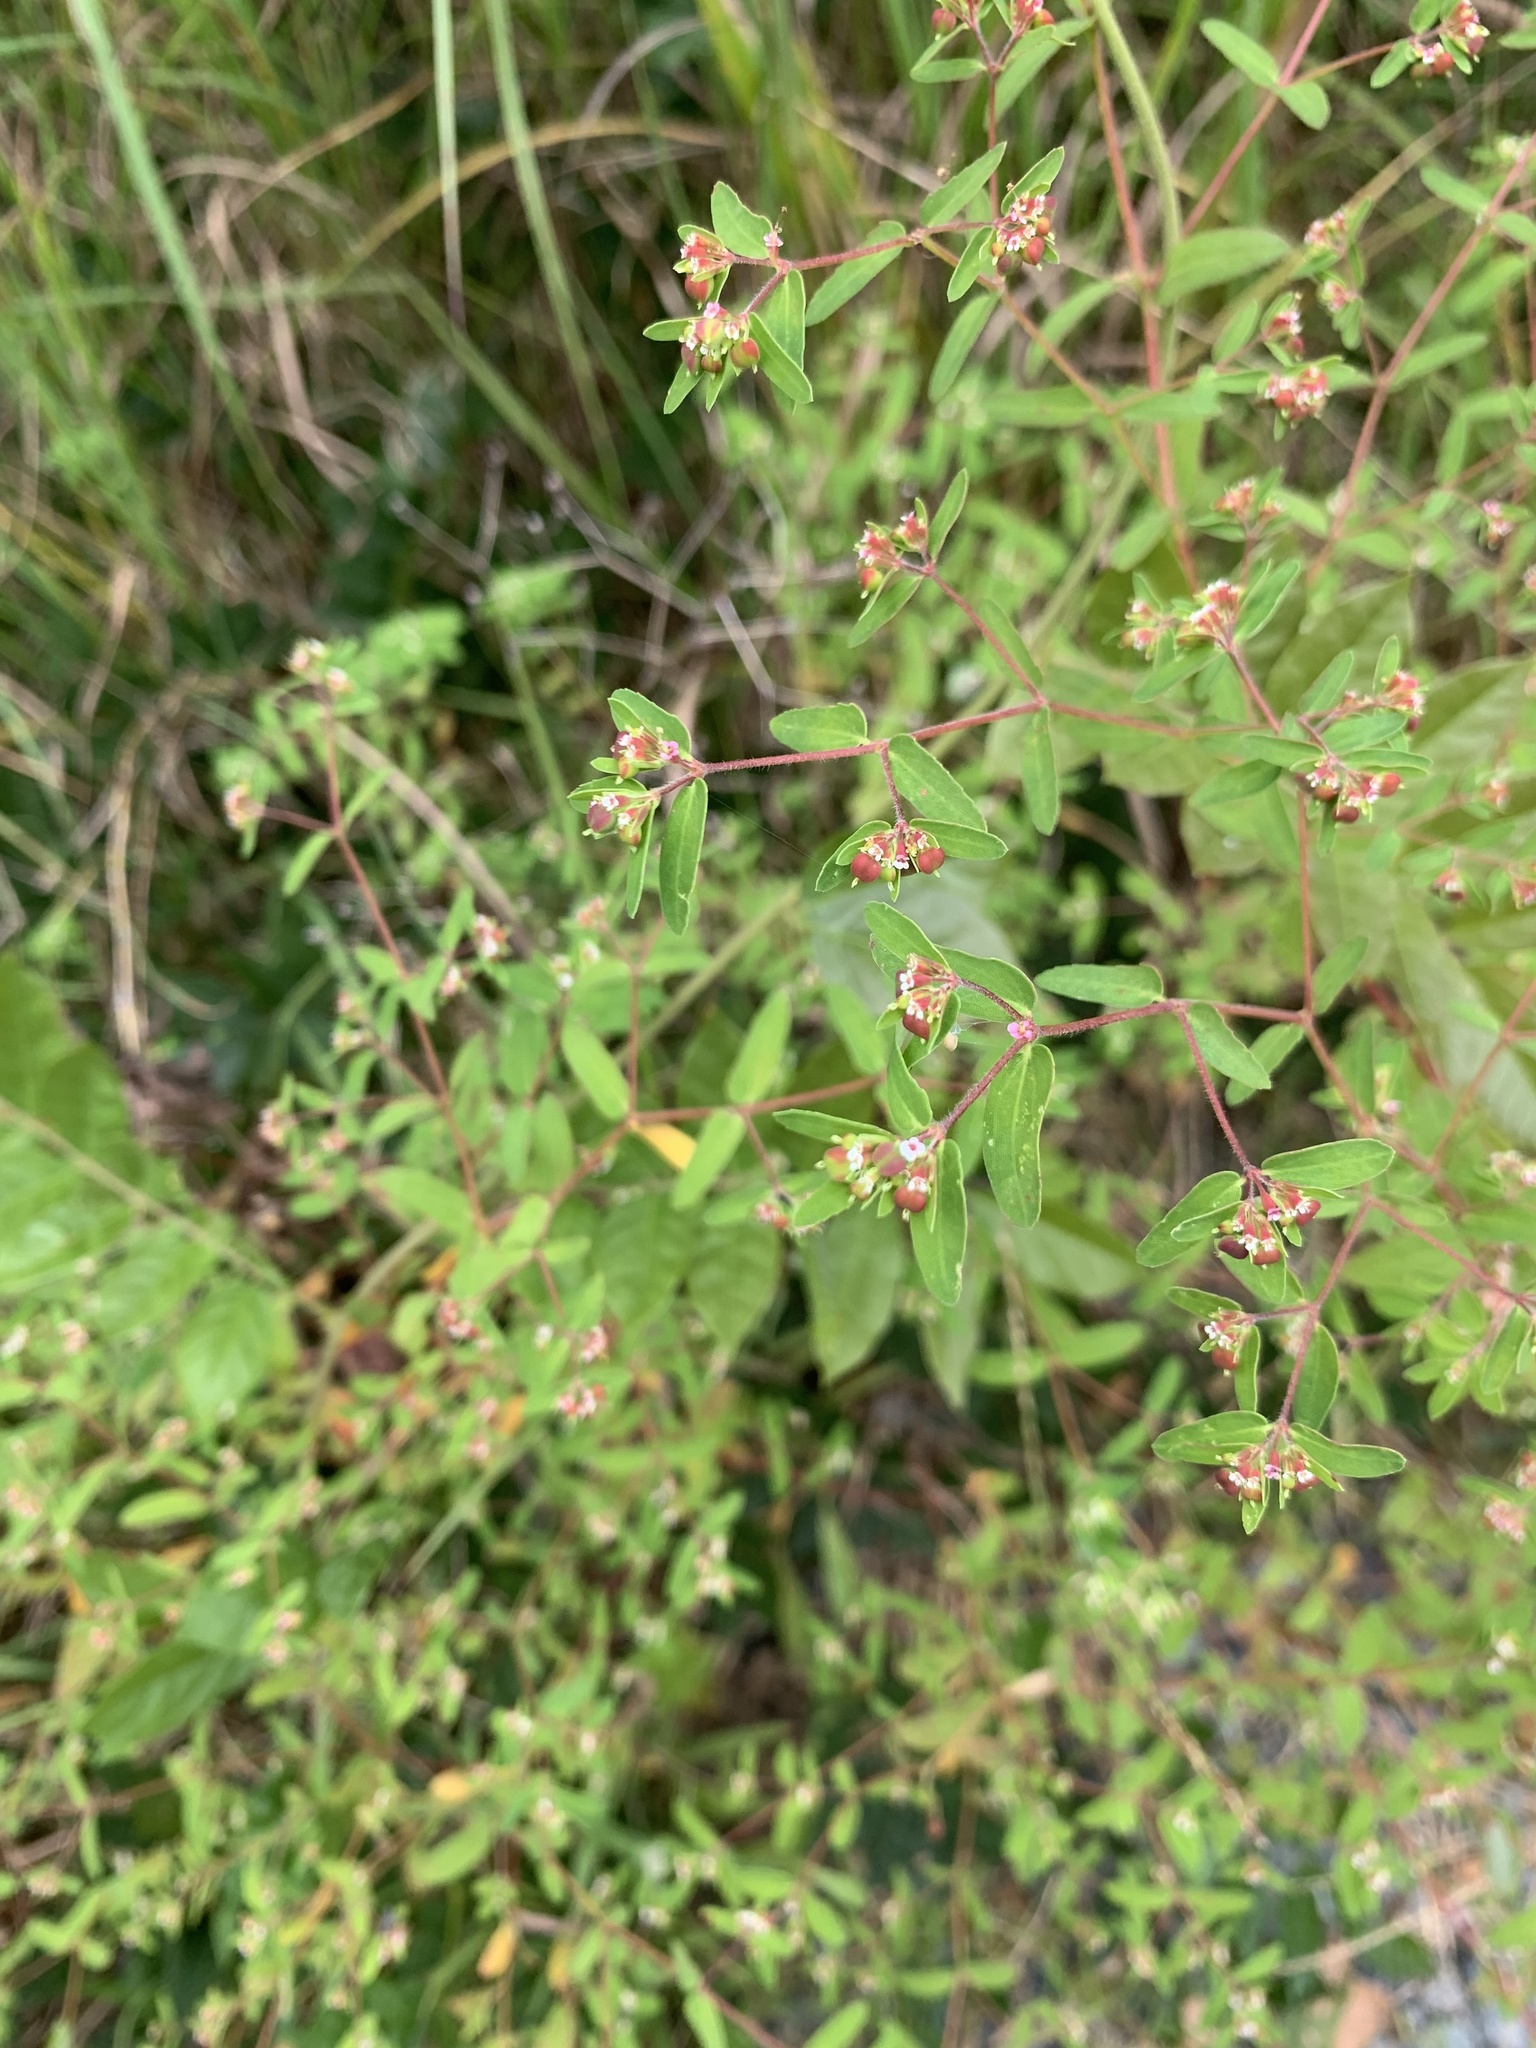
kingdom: Plantae
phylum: Tracheophyta
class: Magnoliopsida
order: Malpighiales
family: Euphorbiaceae
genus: Euphorbia
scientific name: Euphorbia nutans
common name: Eyebane
